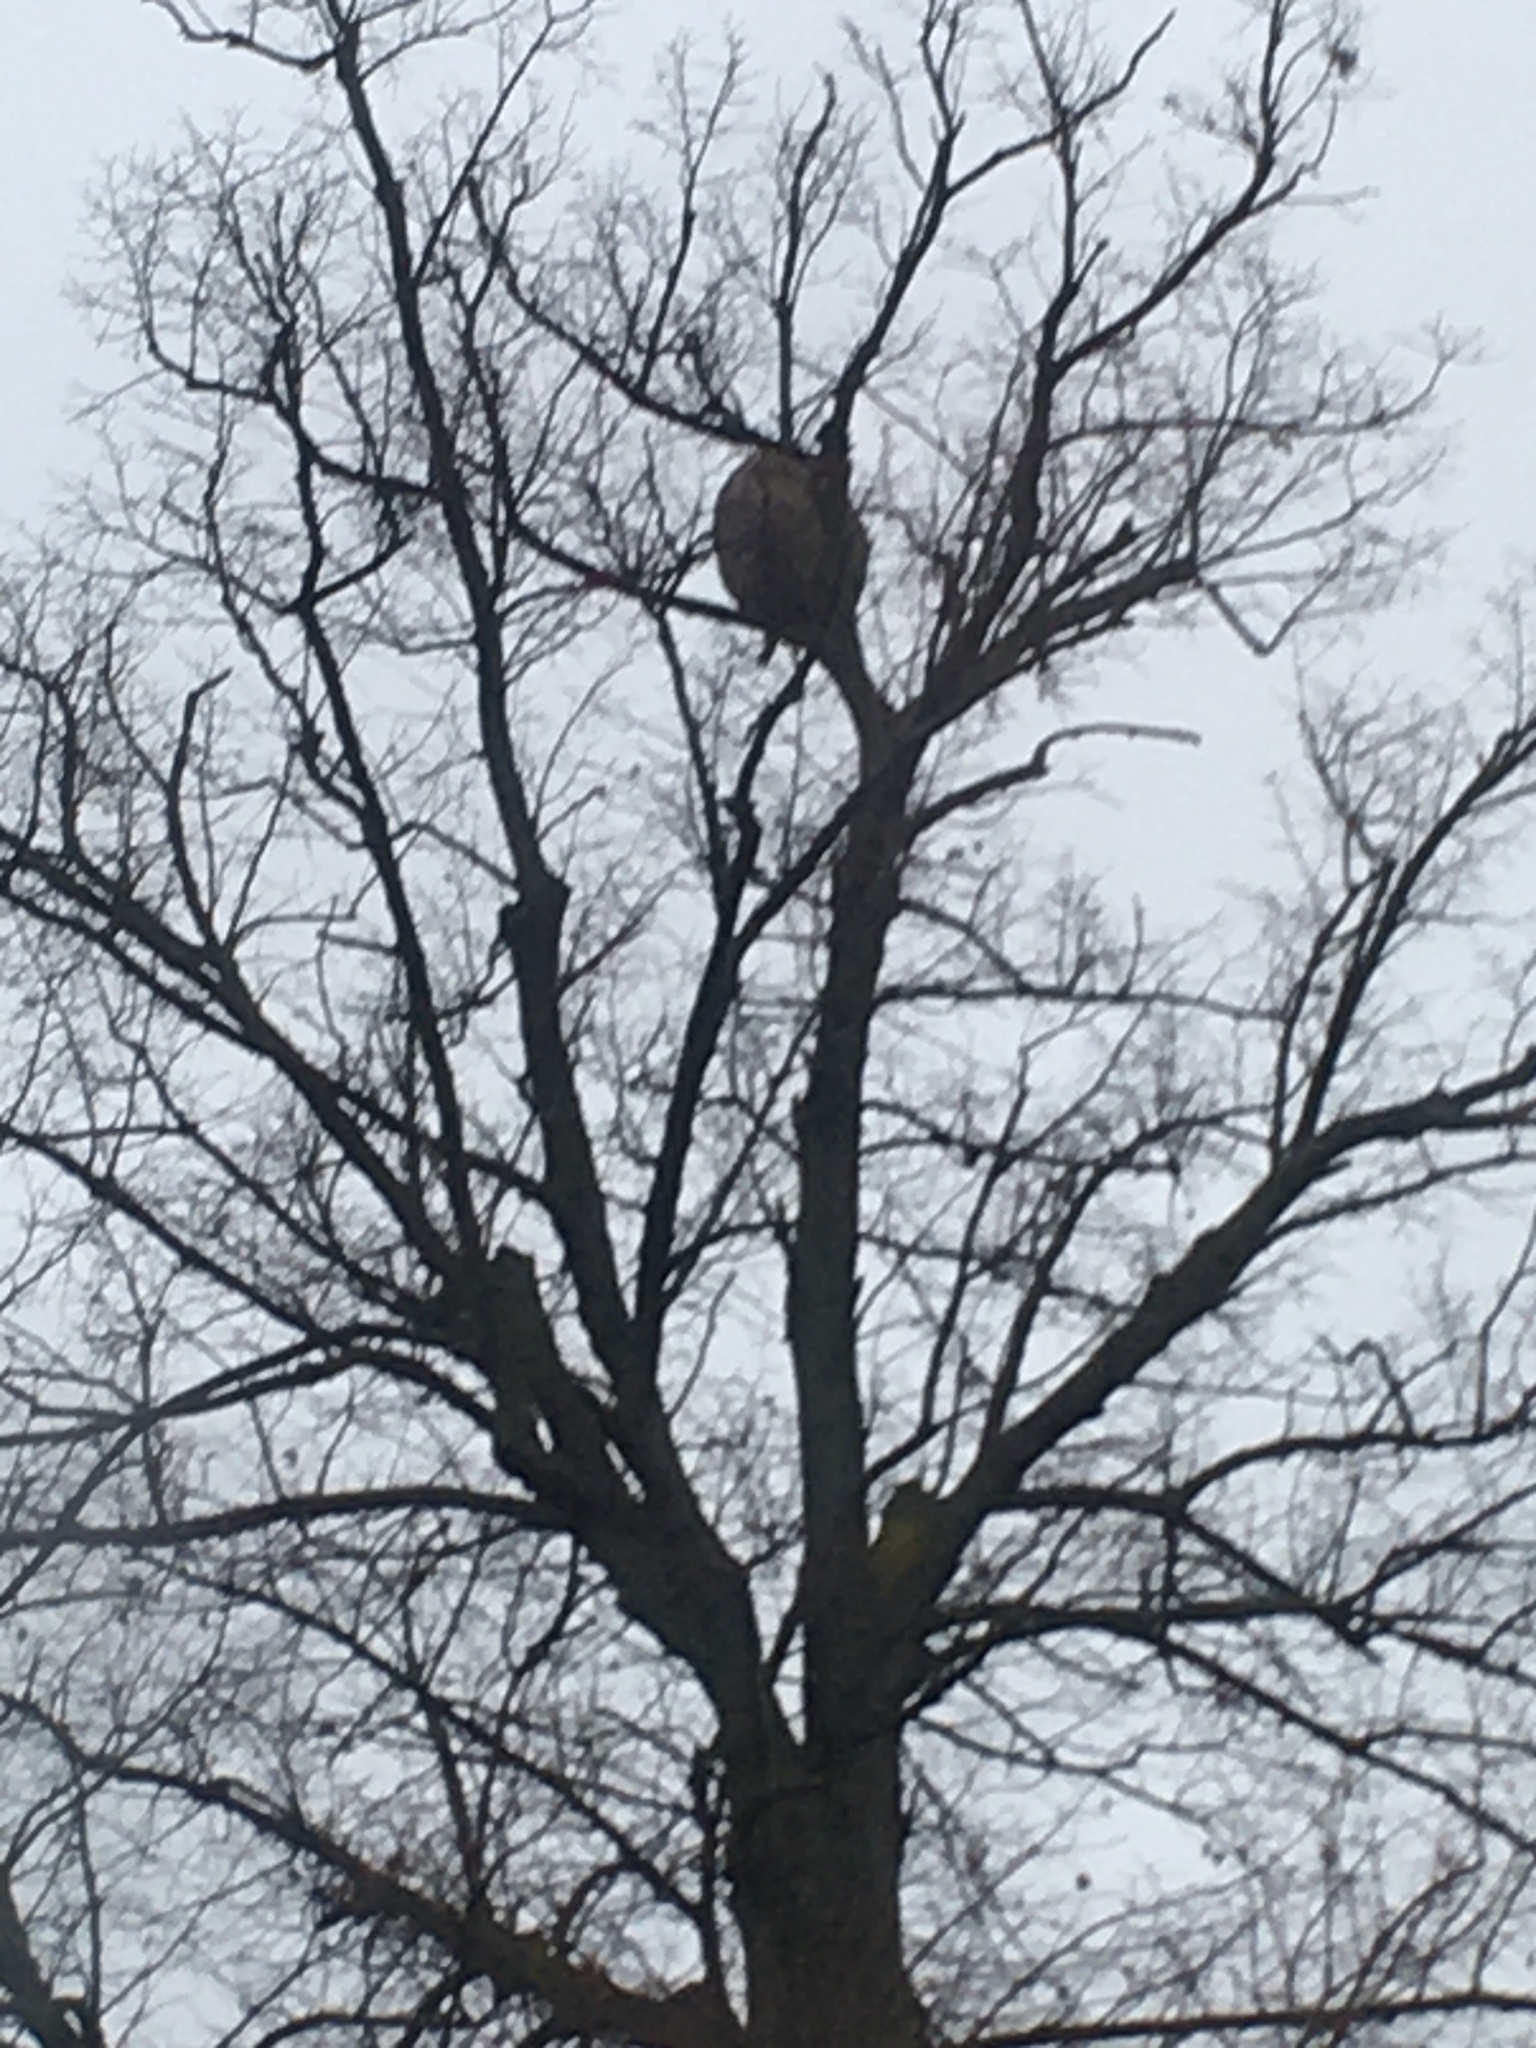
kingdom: Animalia
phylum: Arthropoda
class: Insecta
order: Hymenoptera
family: Vespidae
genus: Vespa
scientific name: Vespa velutina
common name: Asian hornet
